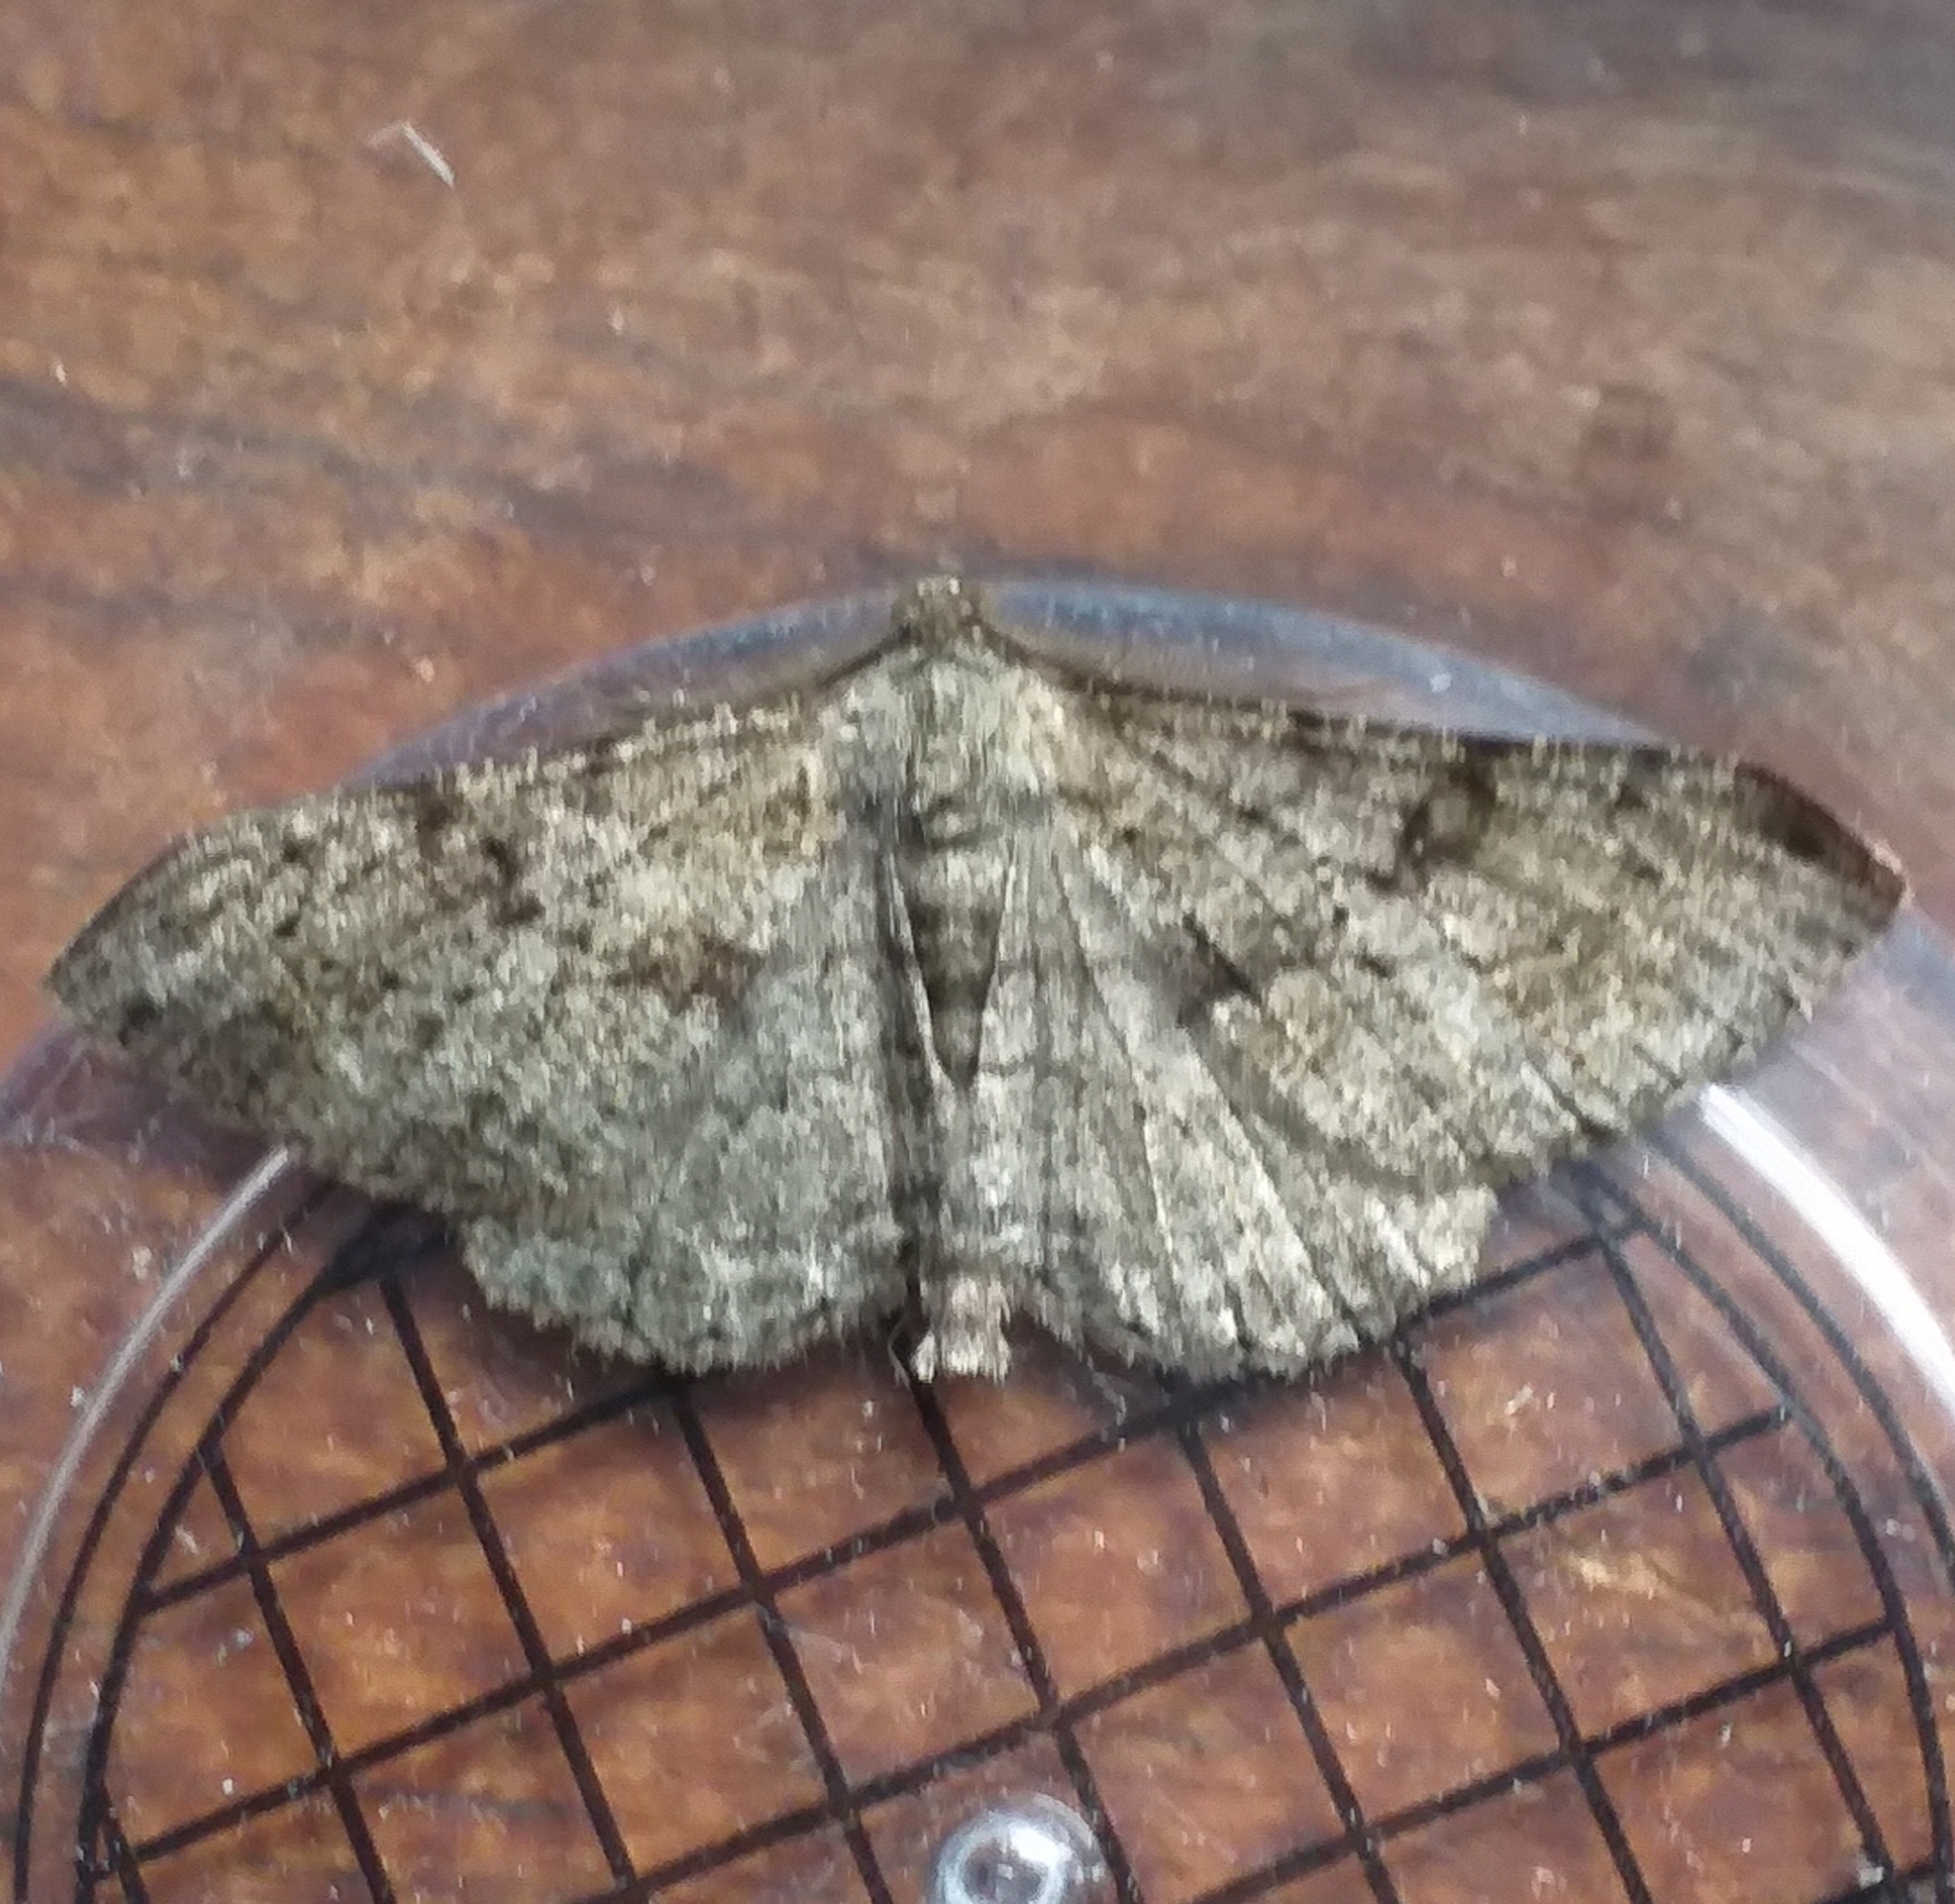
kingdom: Animalia
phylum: Arthropoda
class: Insecta
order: Lepidoptera
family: Geometridae
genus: Peribatodes
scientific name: Peribatodes rhomboidaria
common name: Willow beauty
